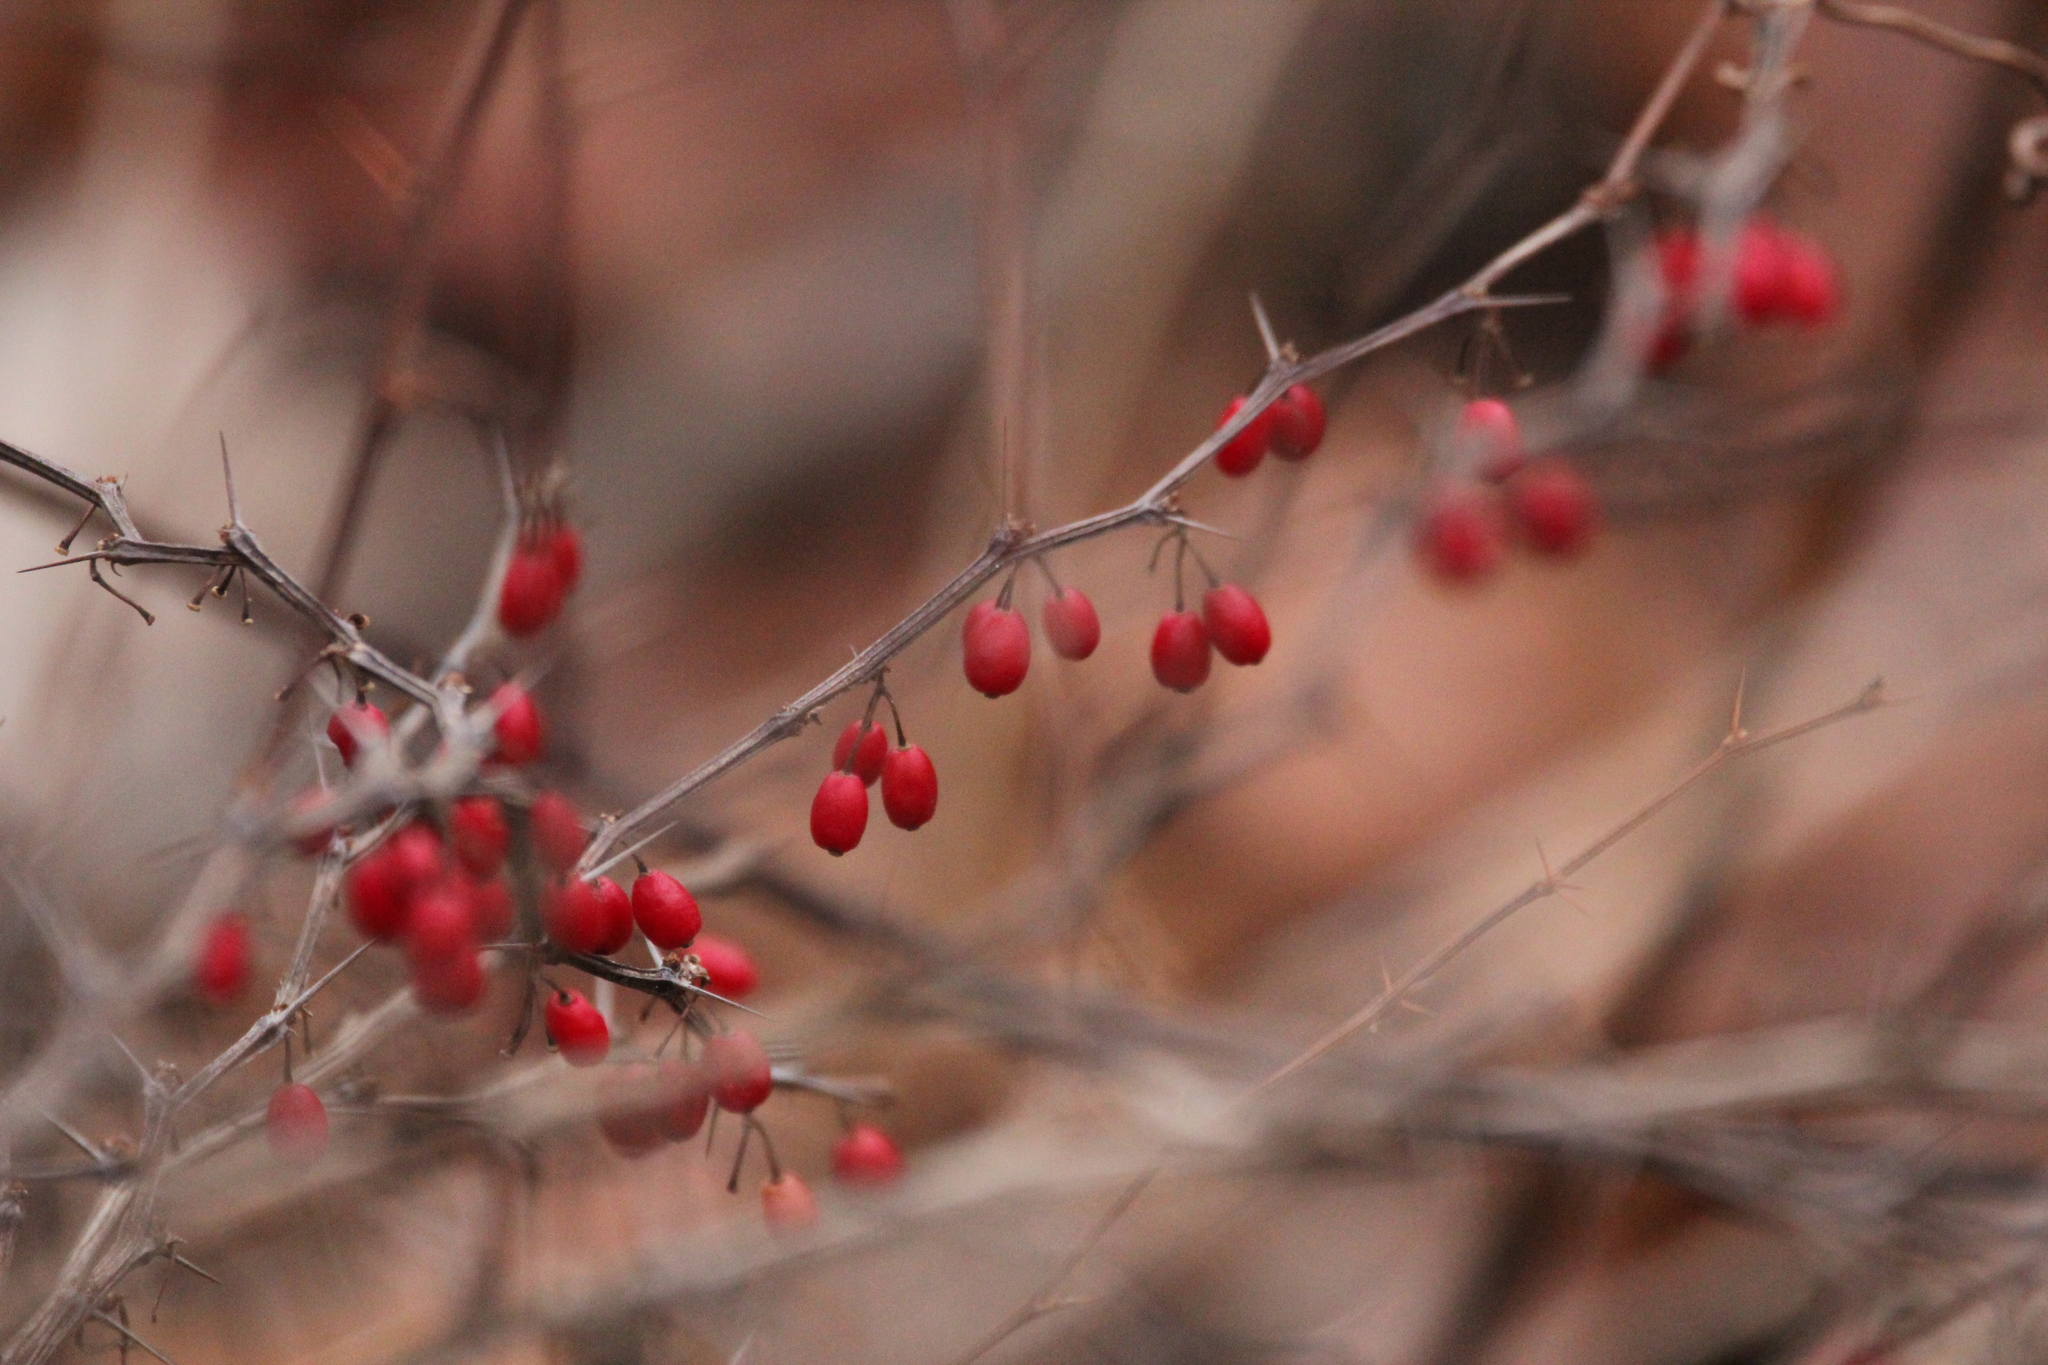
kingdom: Plantae
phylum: Tracheophyta
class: Magnoliopsida
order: Ranunculales
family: Berberidaceae
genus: Berberis
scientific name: Berberis thunbergii
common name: Japanese barberry
